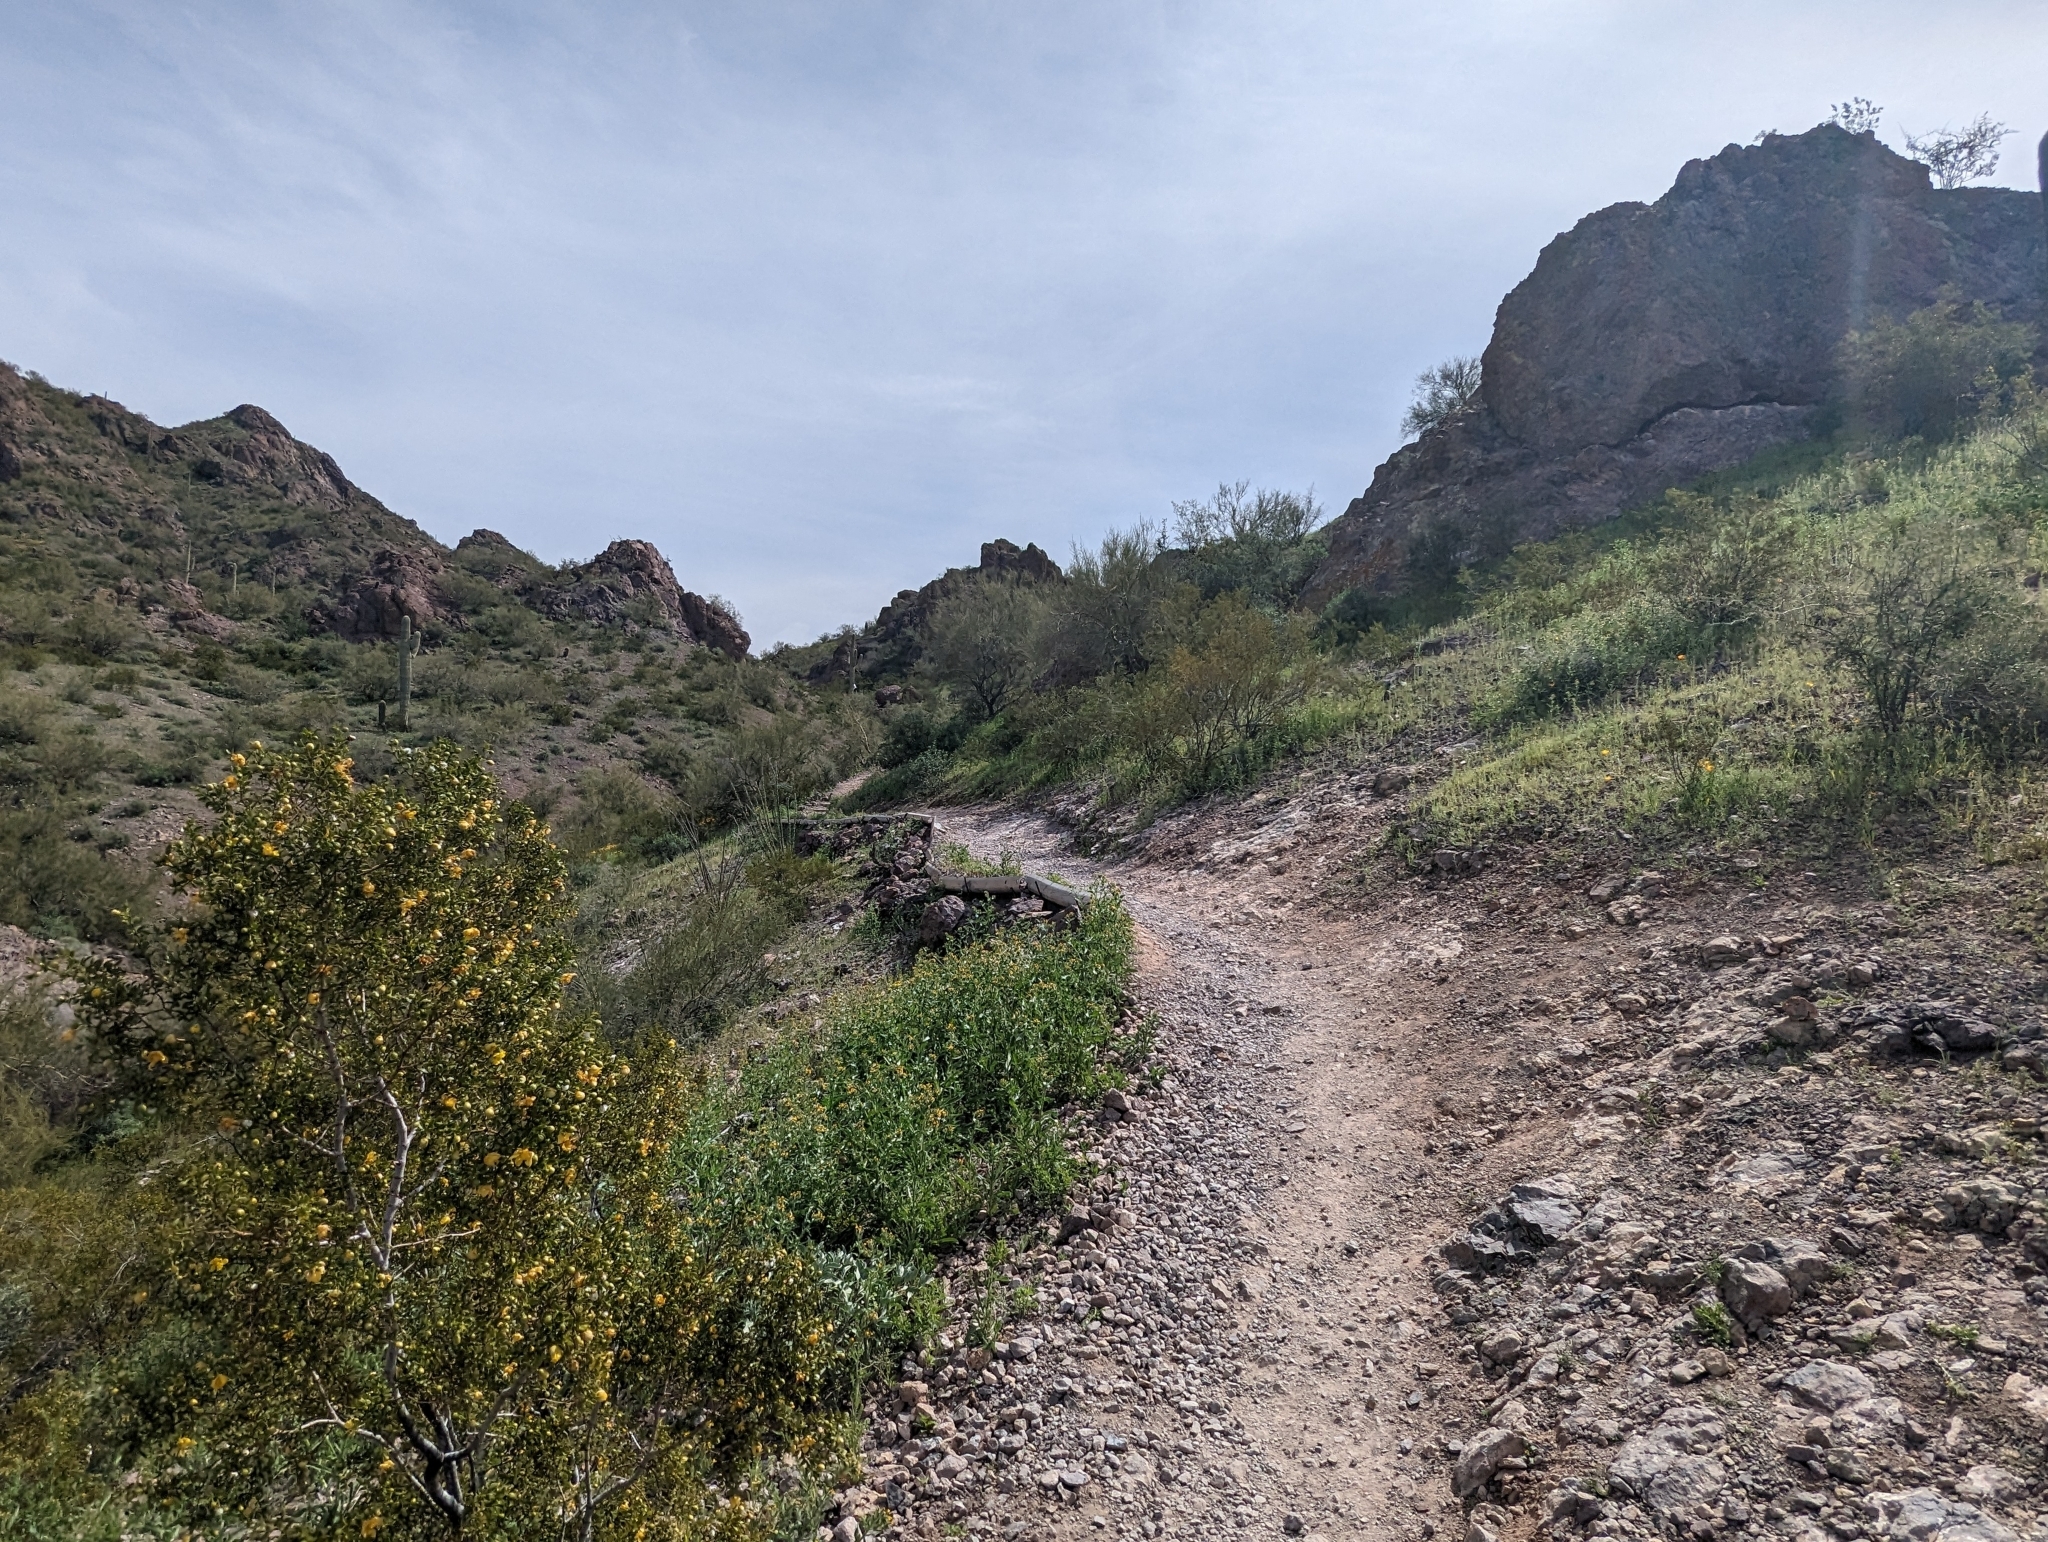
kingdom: Plantae
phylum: Tracheophyta
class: Magnoliopsida
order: Zygophyllales
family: Zygophyllaceae
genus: Larrea
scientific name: Larrea tridentata
